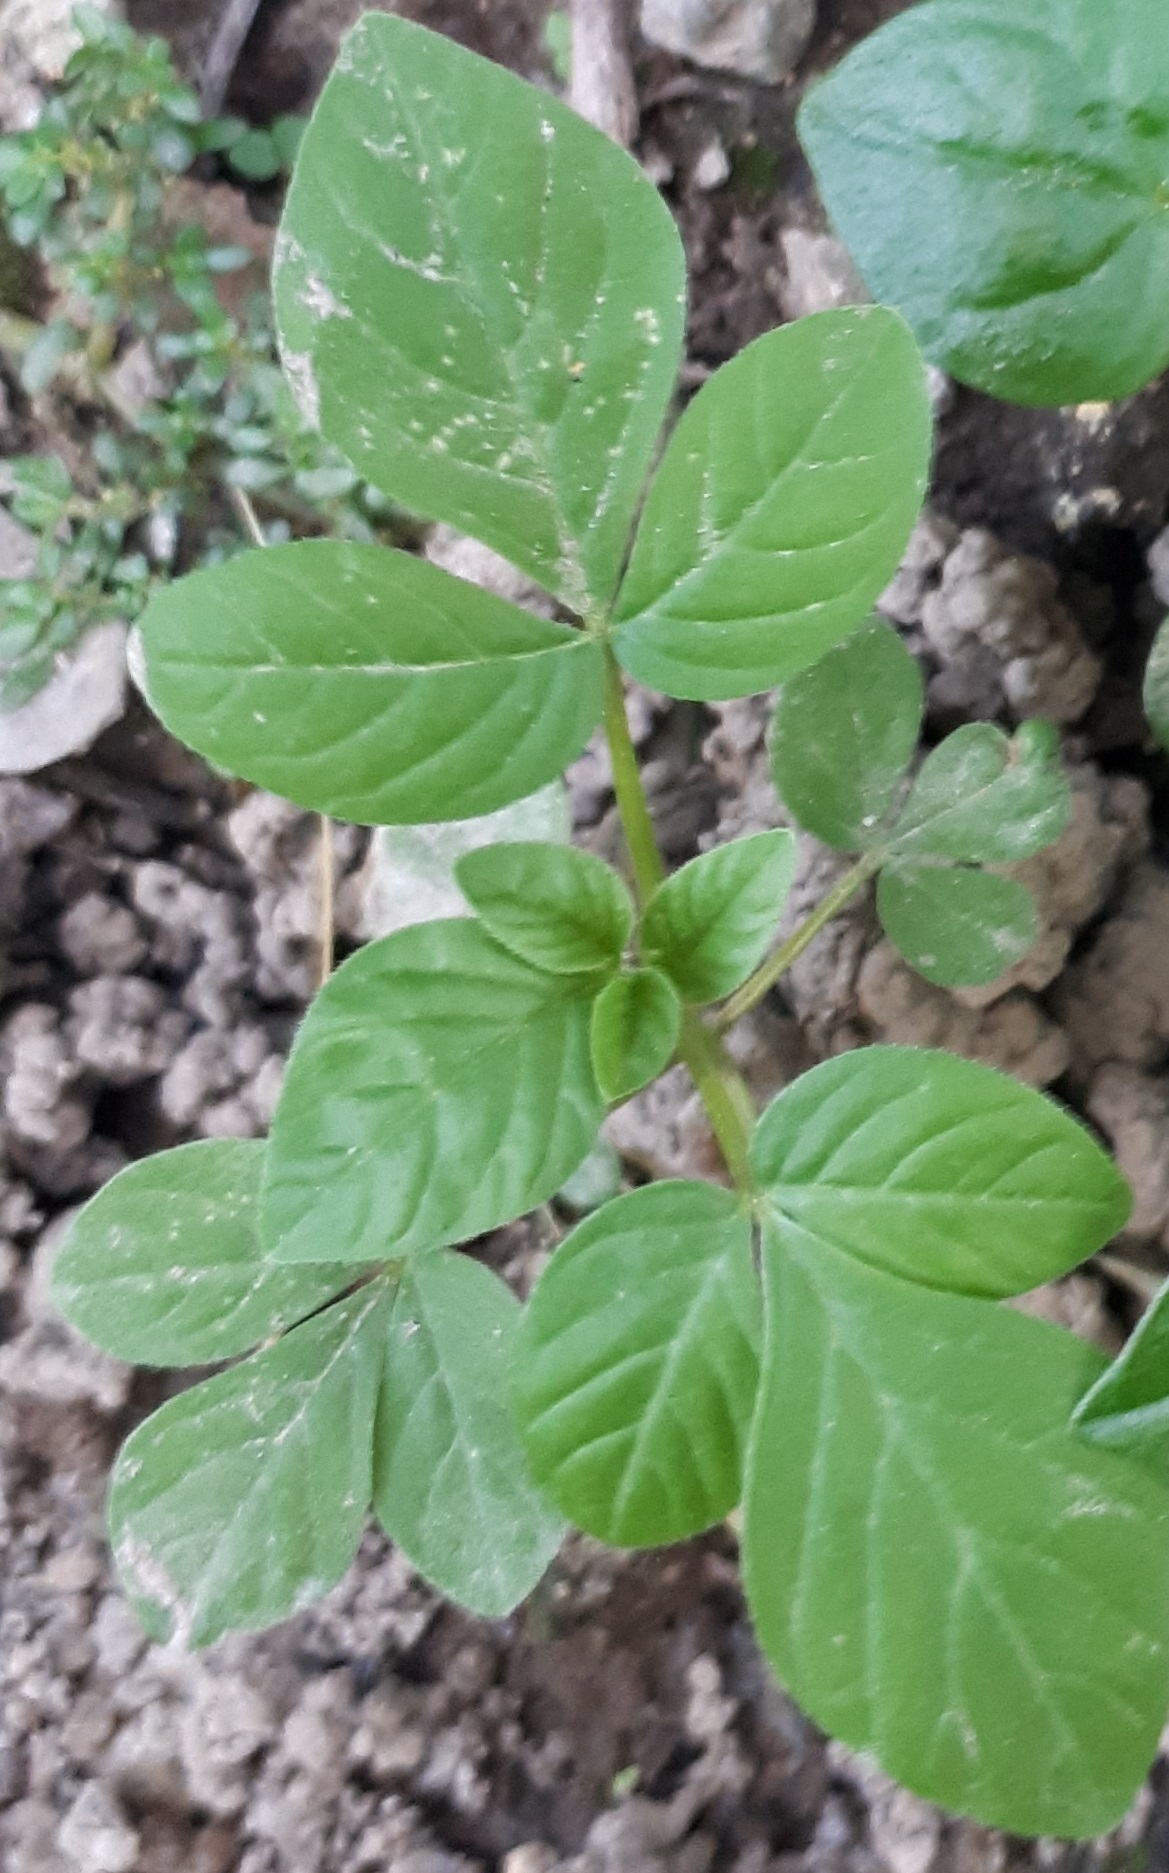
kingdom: Plantae
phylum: Tracheophyta
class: Magnoliopsida
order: Brassicales
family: Cleomaceae
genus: Sieruela
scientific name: Sieruela rutidosperma
